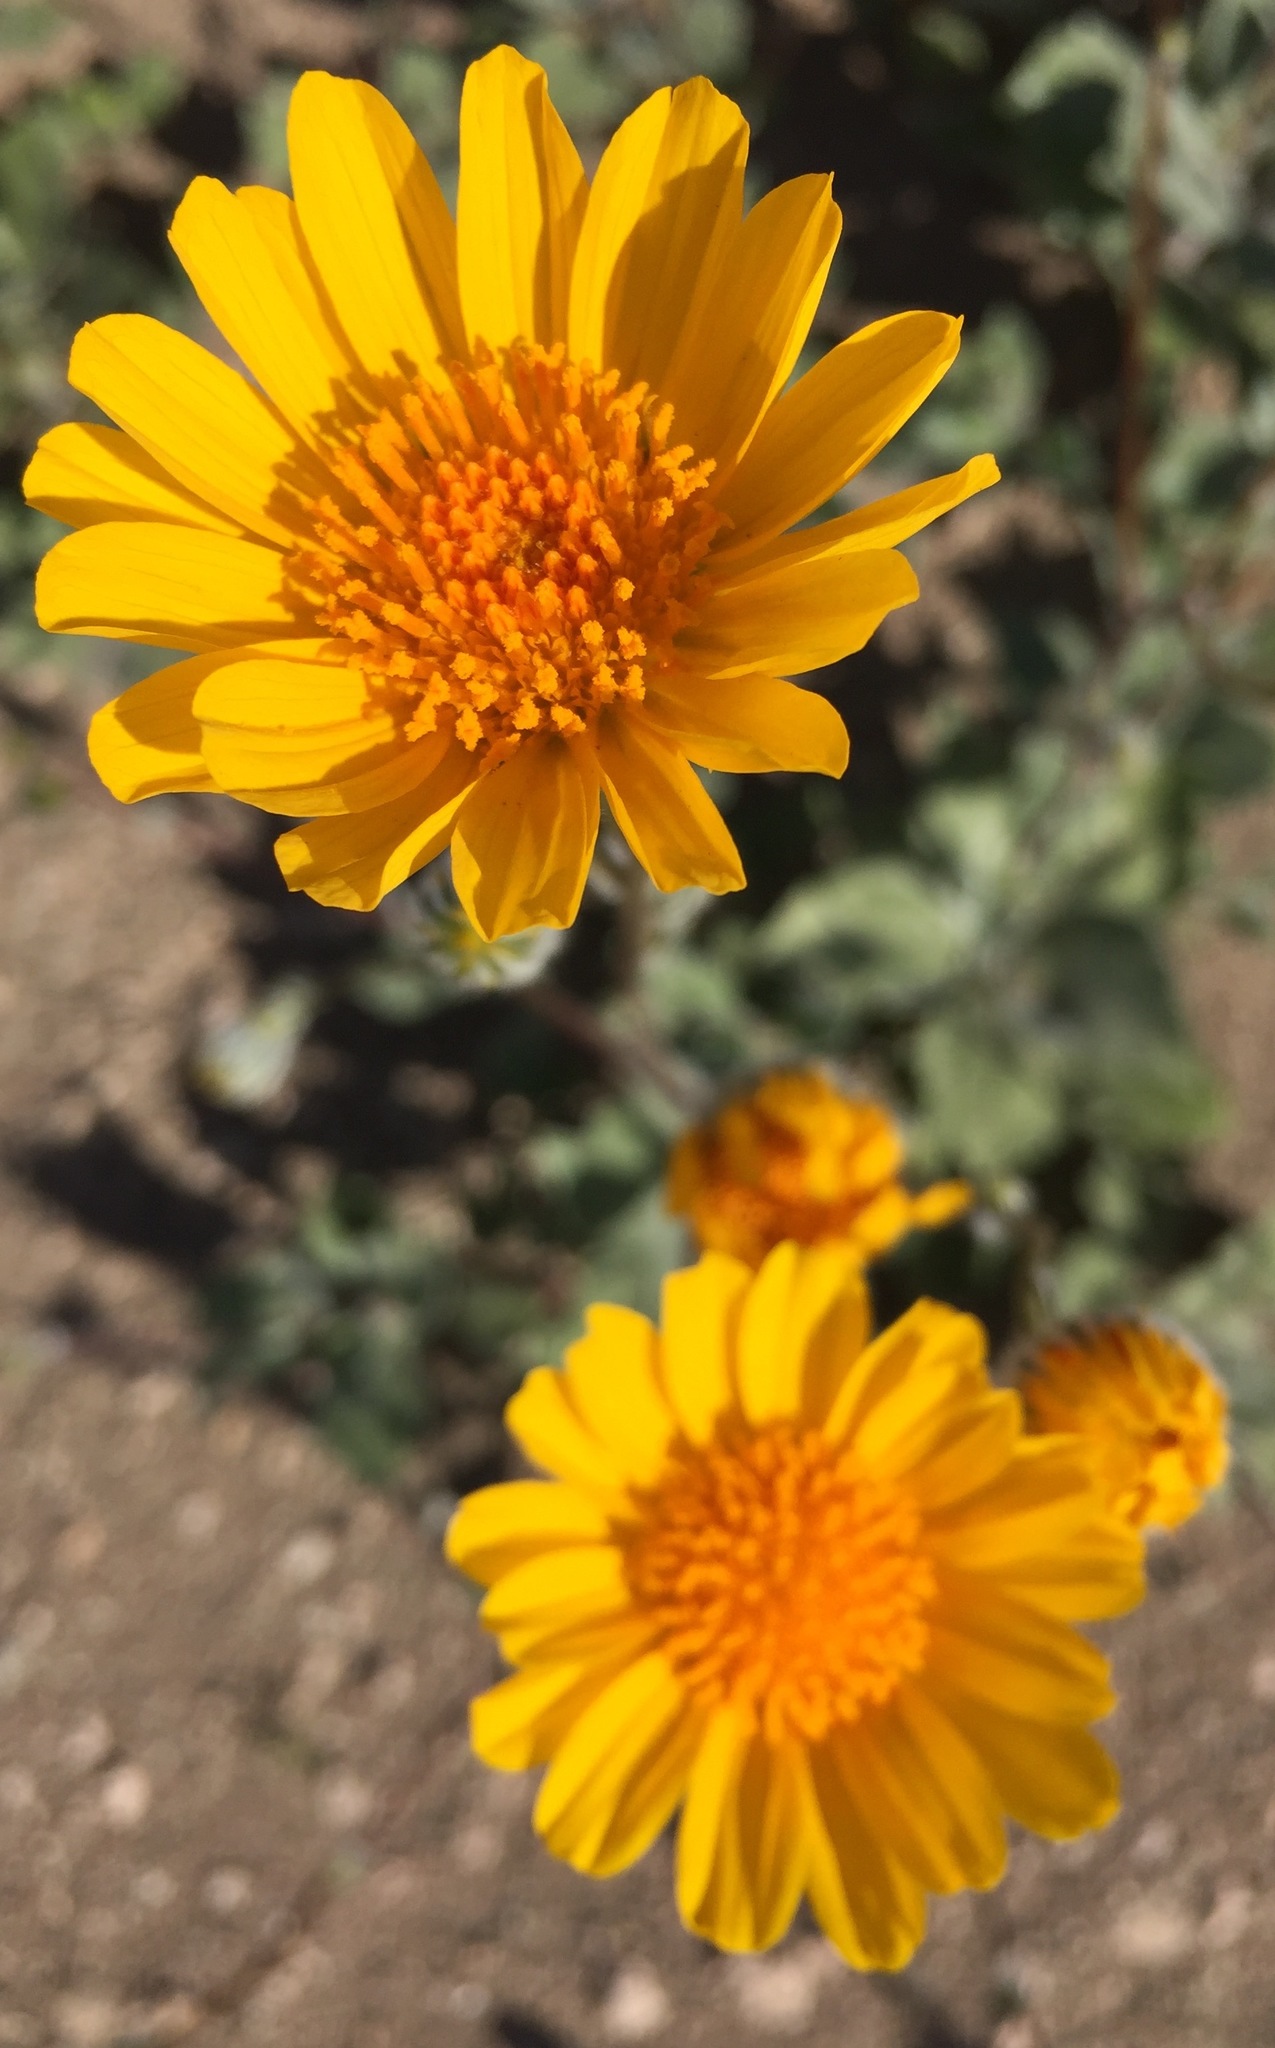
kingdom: Plantae
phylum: Tracheophyta
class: Magnoliopsida
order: Asterales
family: Asteraceae
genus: Geraea
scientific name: Geraea canescens
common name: Desert-gold
